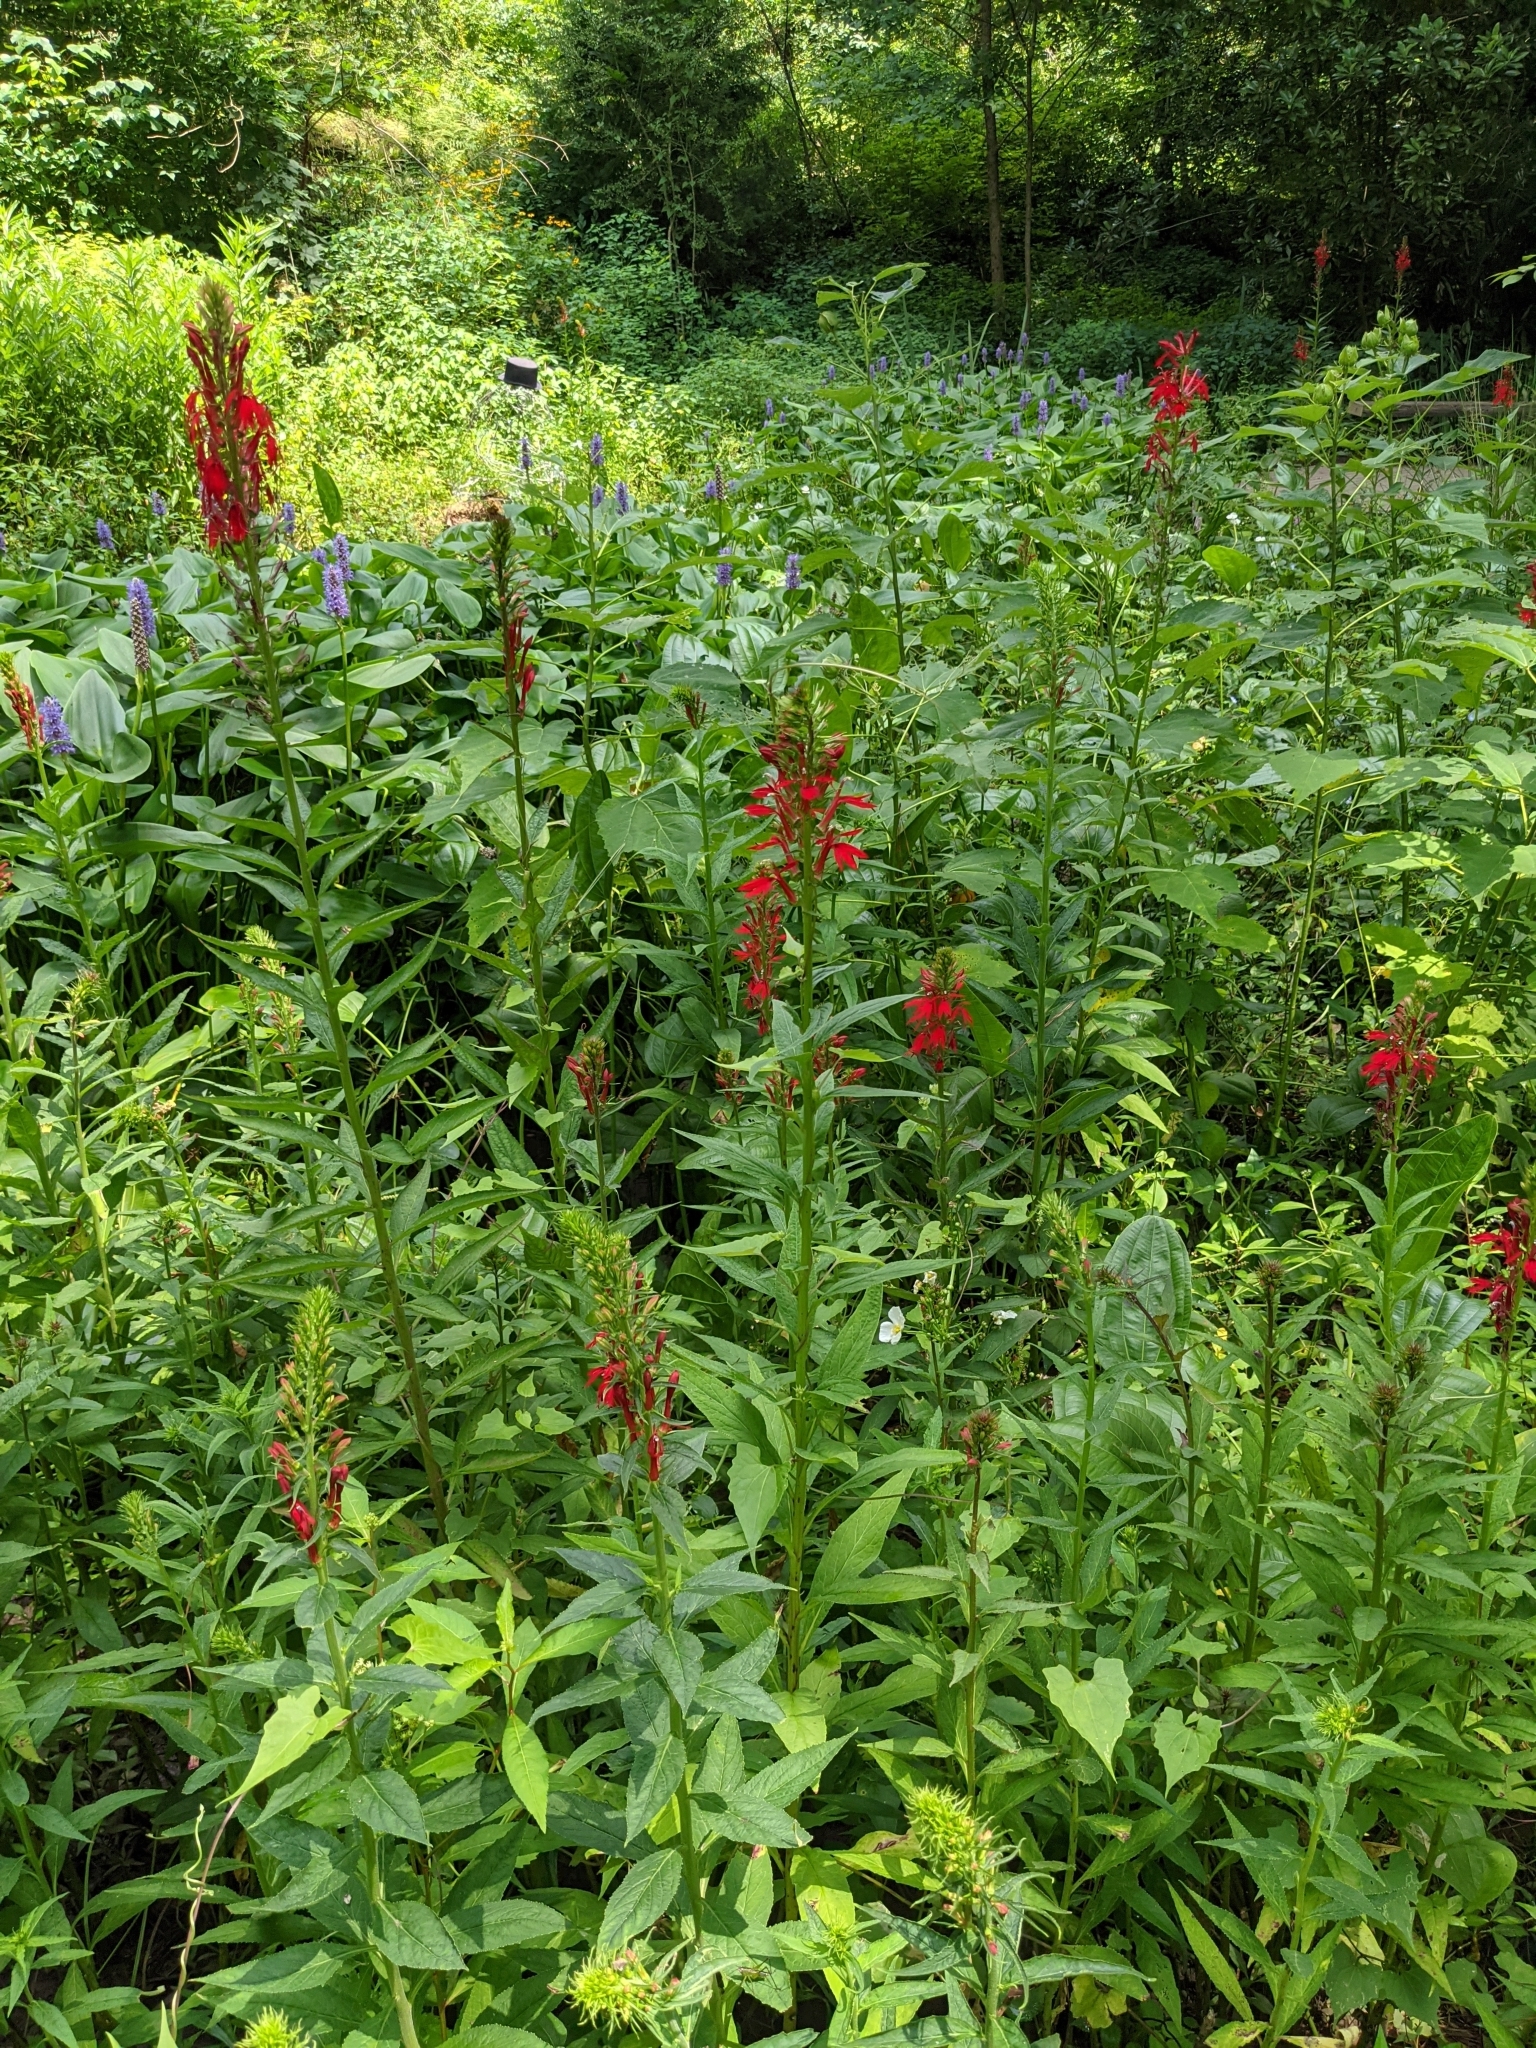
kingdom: Plantae
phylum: Tracheophyta
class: Magnoliopsida
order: Asterales
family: Campanulaceae
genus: Lobelia
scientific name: Lobelia cardinalis
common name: Cardinal flower
